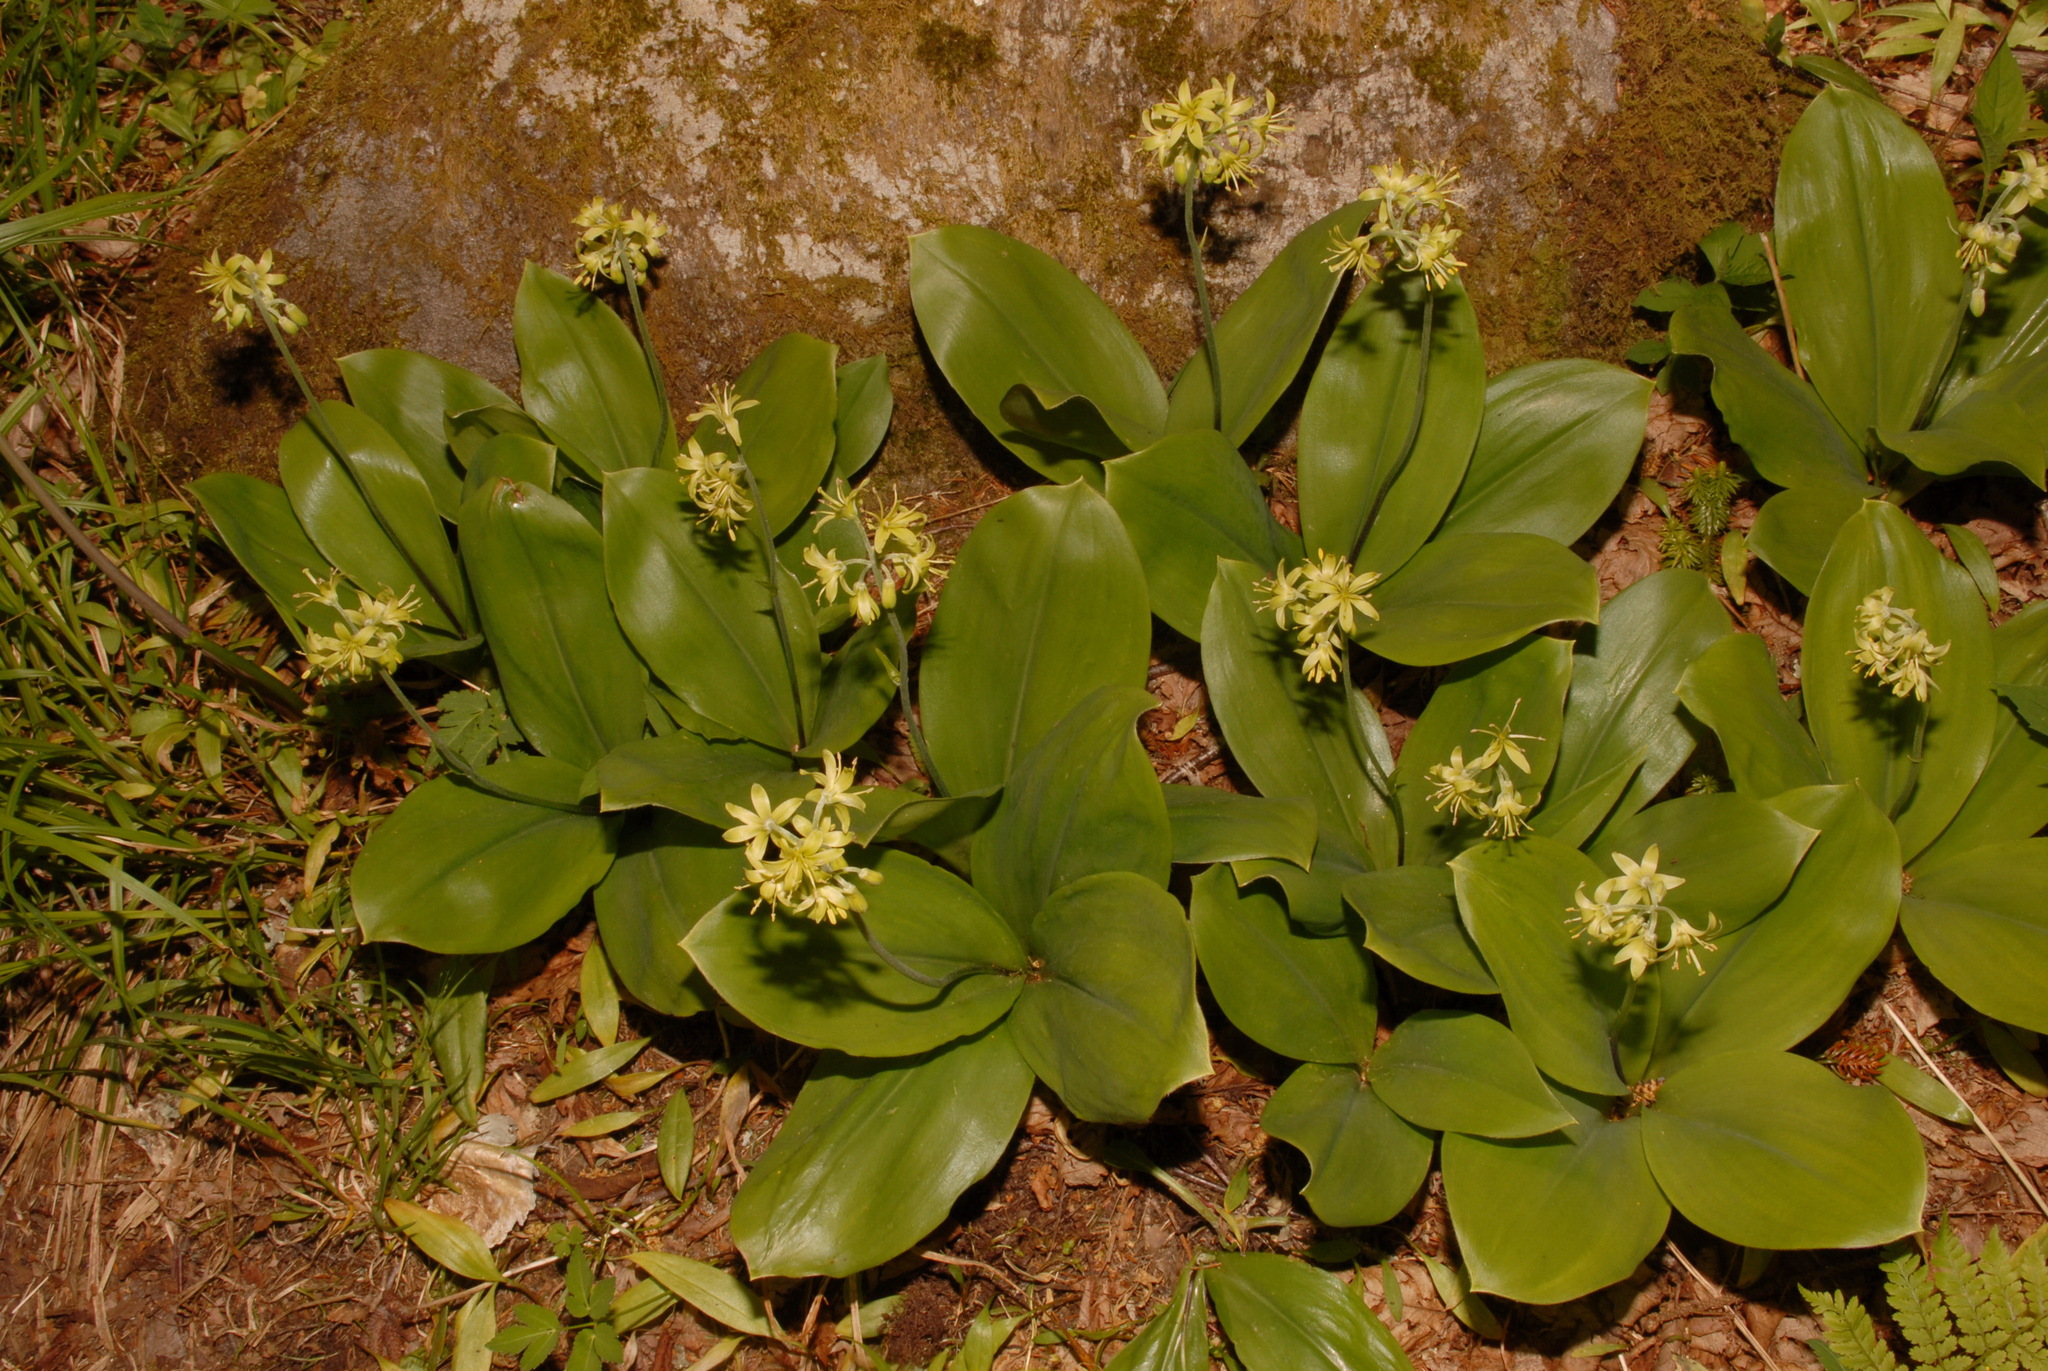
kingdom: Plantae
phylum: Tracheophyta
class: Liliopsida
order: Liliales
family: Liliaceae
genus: Clintonia
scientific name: Clintonia borealis
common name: Yellow clintonia
